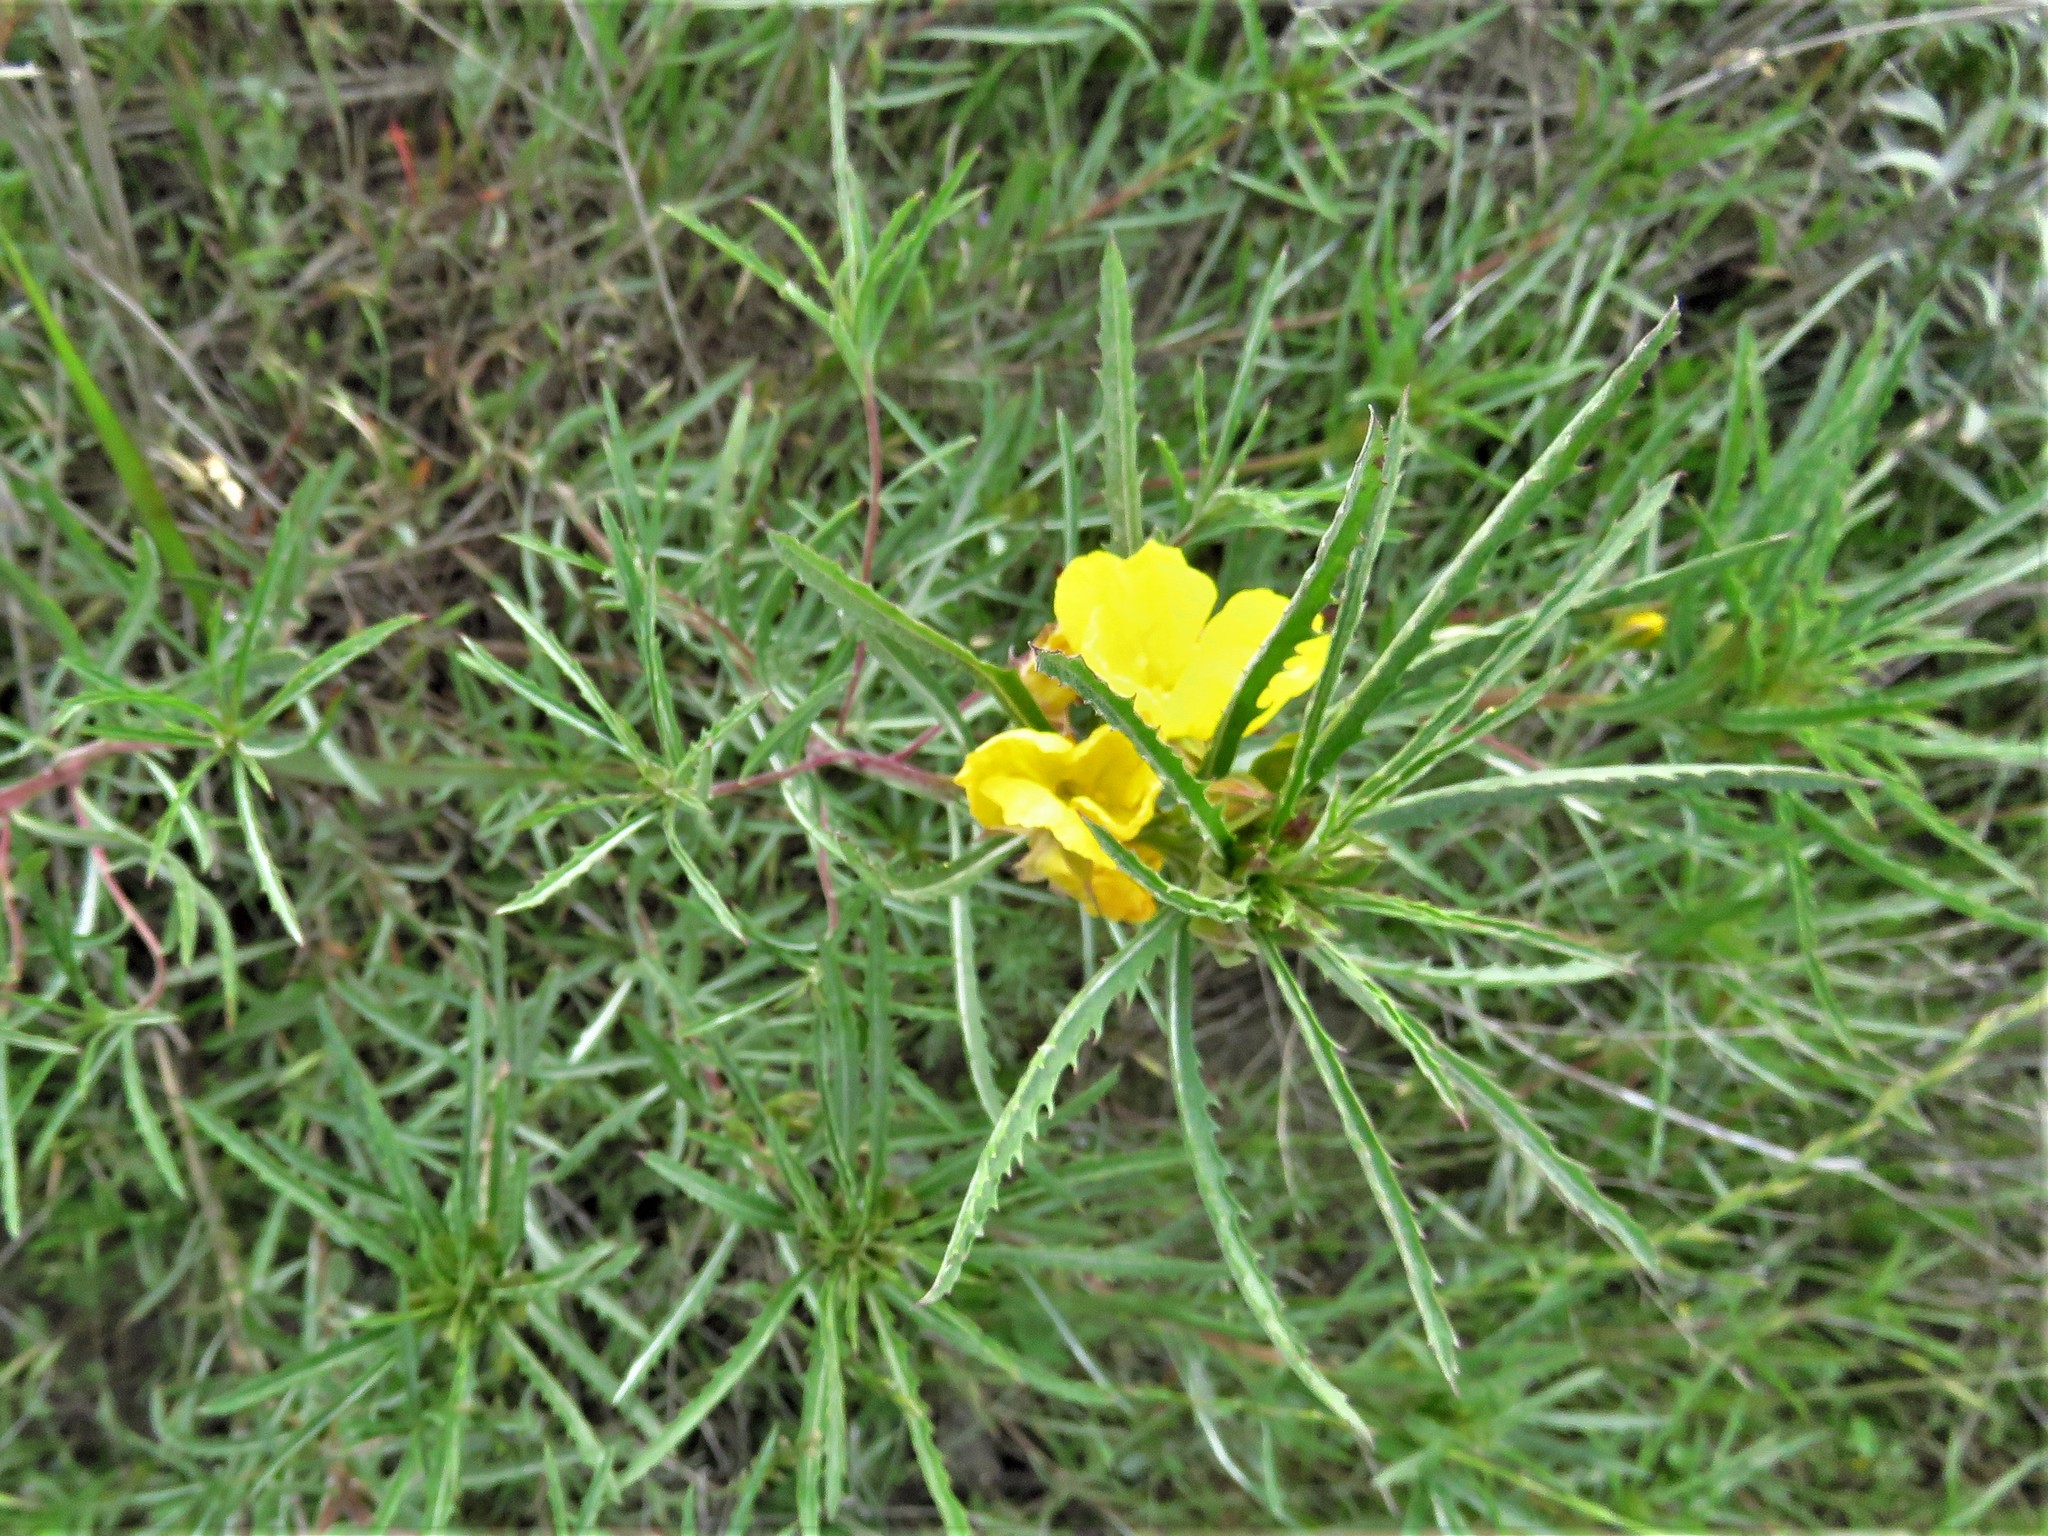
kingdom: Plantae
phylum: Tracheophyta
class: Magnoliopsida
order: Myrtales
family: Onagraceae
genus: Oenothera
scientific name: Oenothera
